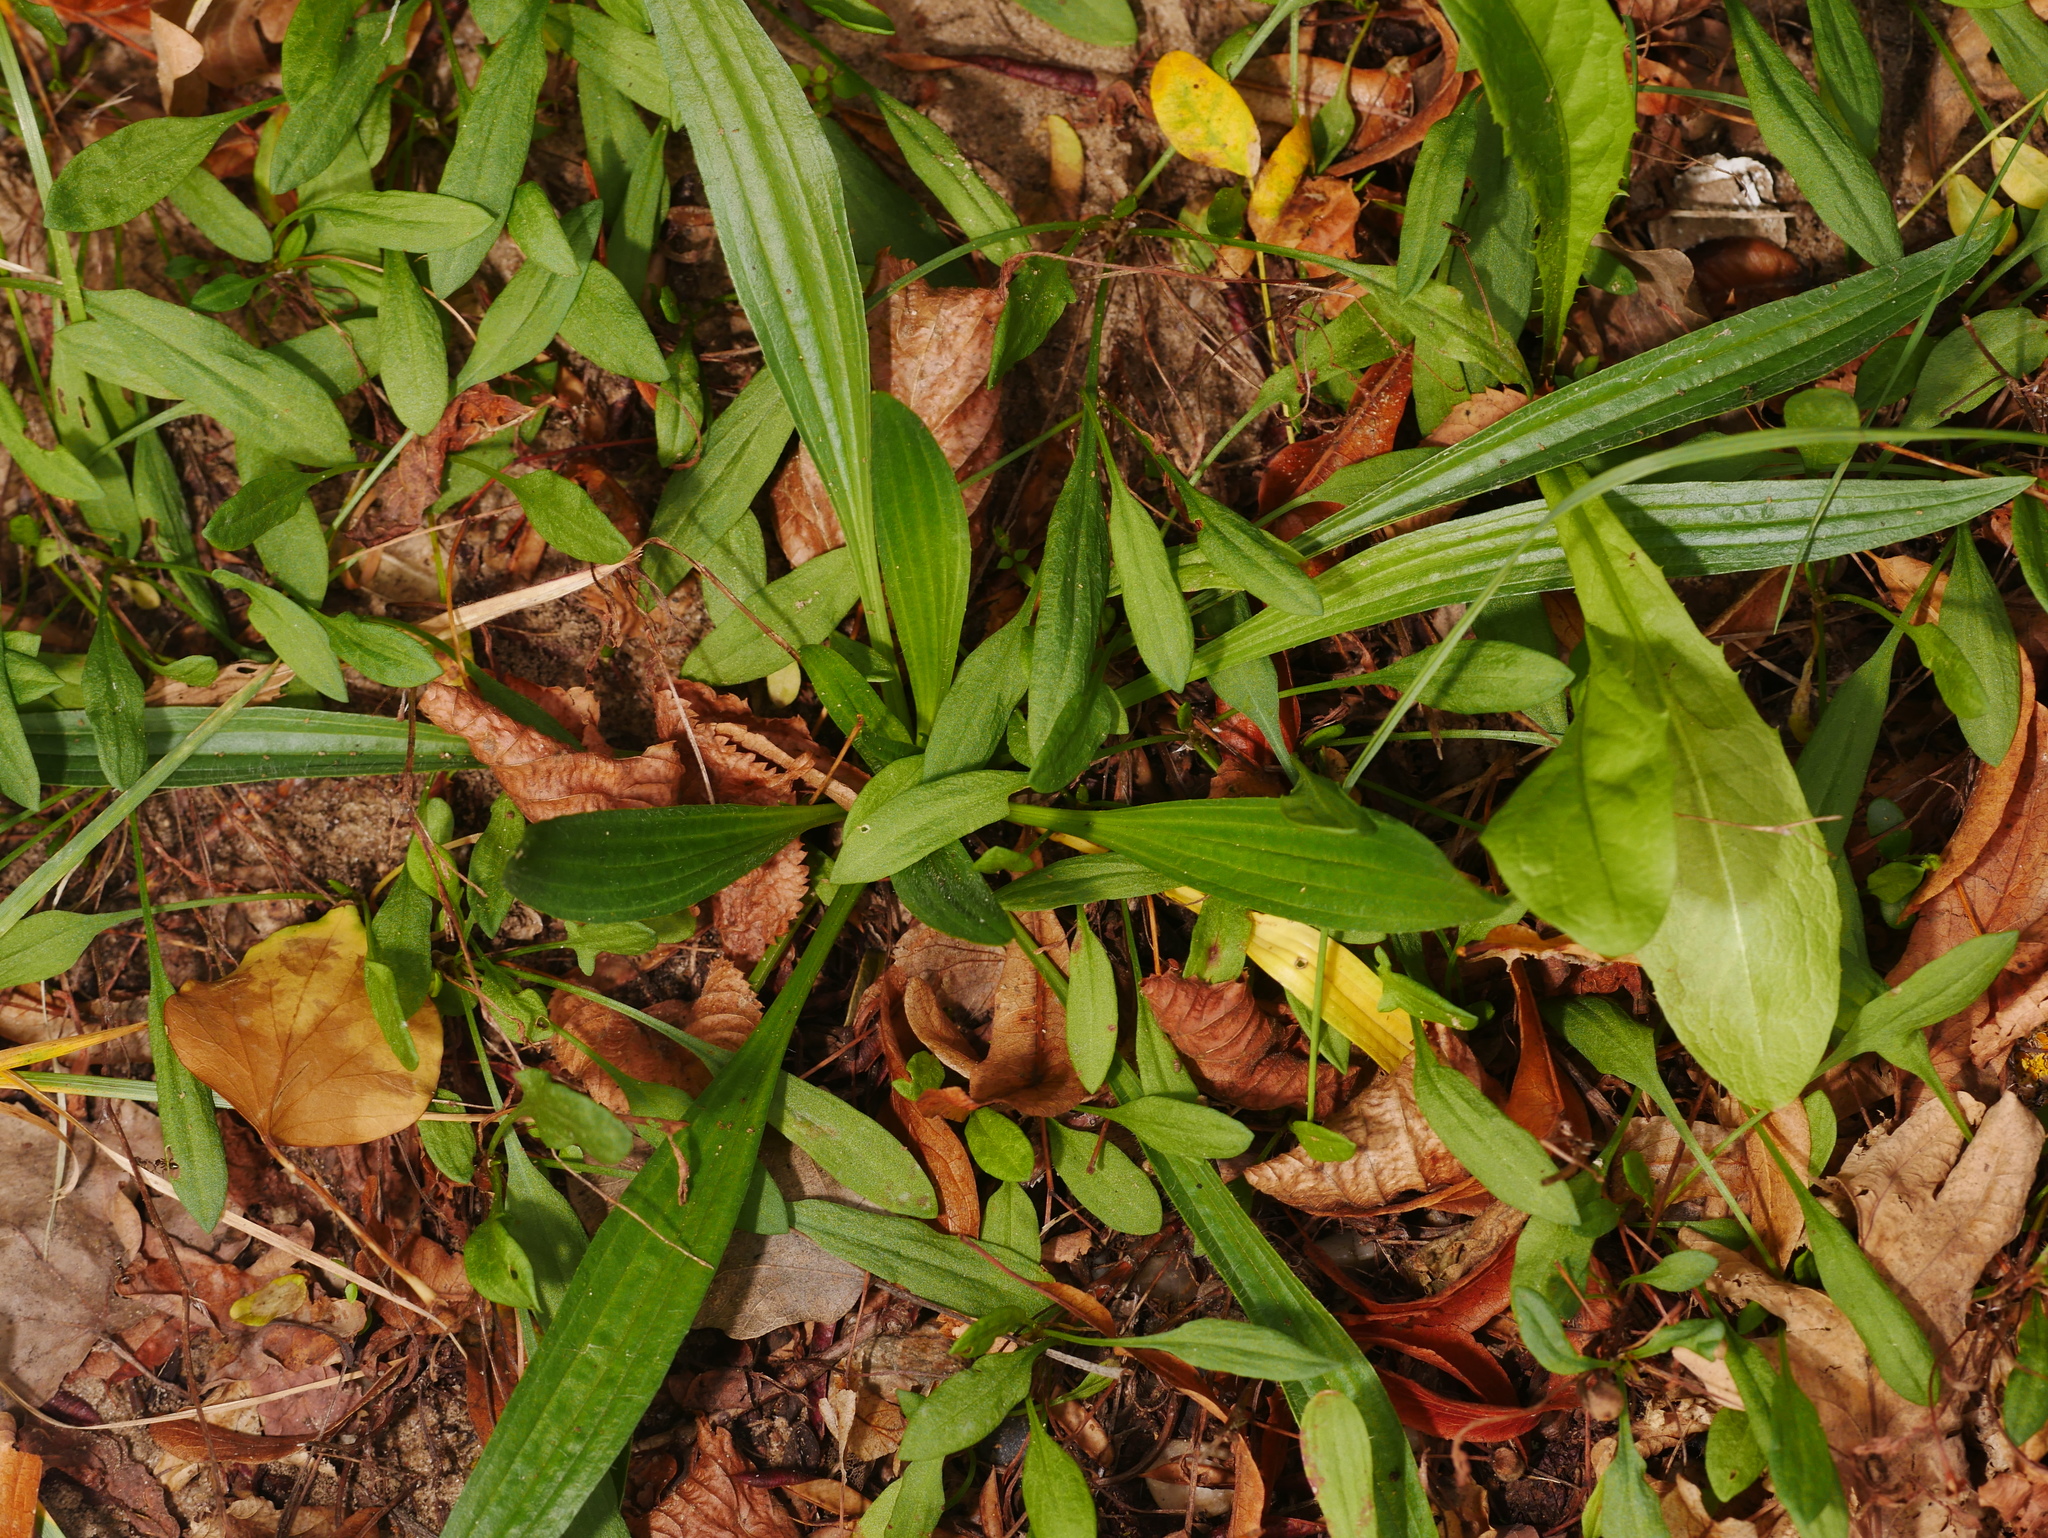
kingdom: Plantae
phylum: Tracheophyta
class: Magnoliopsida
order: Lamiales
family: Plantaginaceae
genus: Plantago
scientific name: Plantago lanceolata
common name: Ribwort plantain
